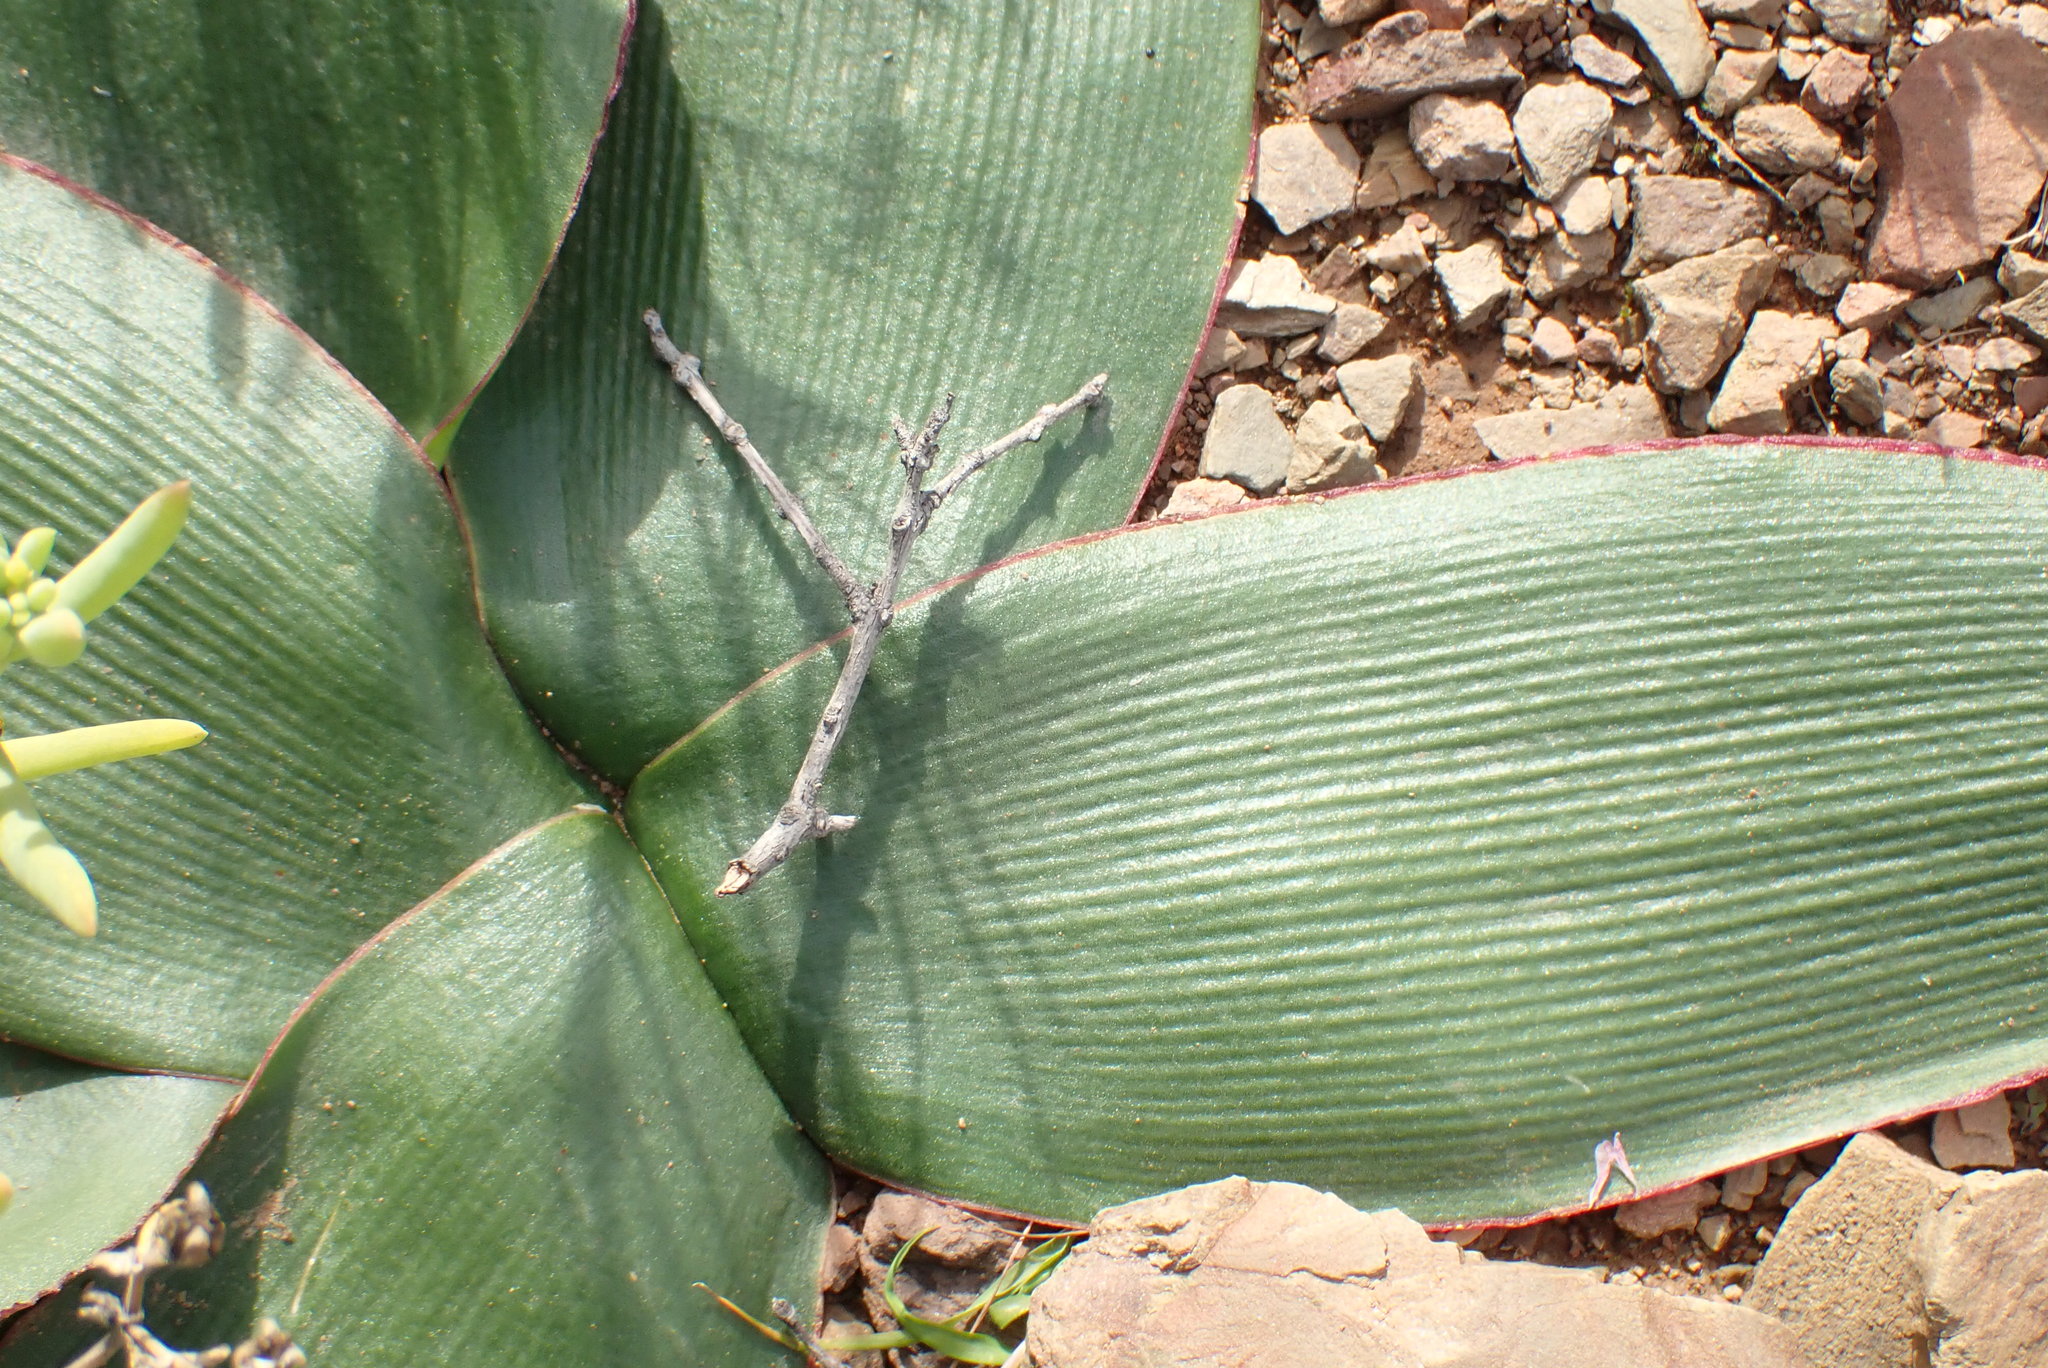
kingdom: Plantae
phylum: Tracheophyta
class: Liliopsida
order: Asparagales
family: Amaryllidaceae
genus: Brunsvigia
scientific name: Brunsvigia nervosa
